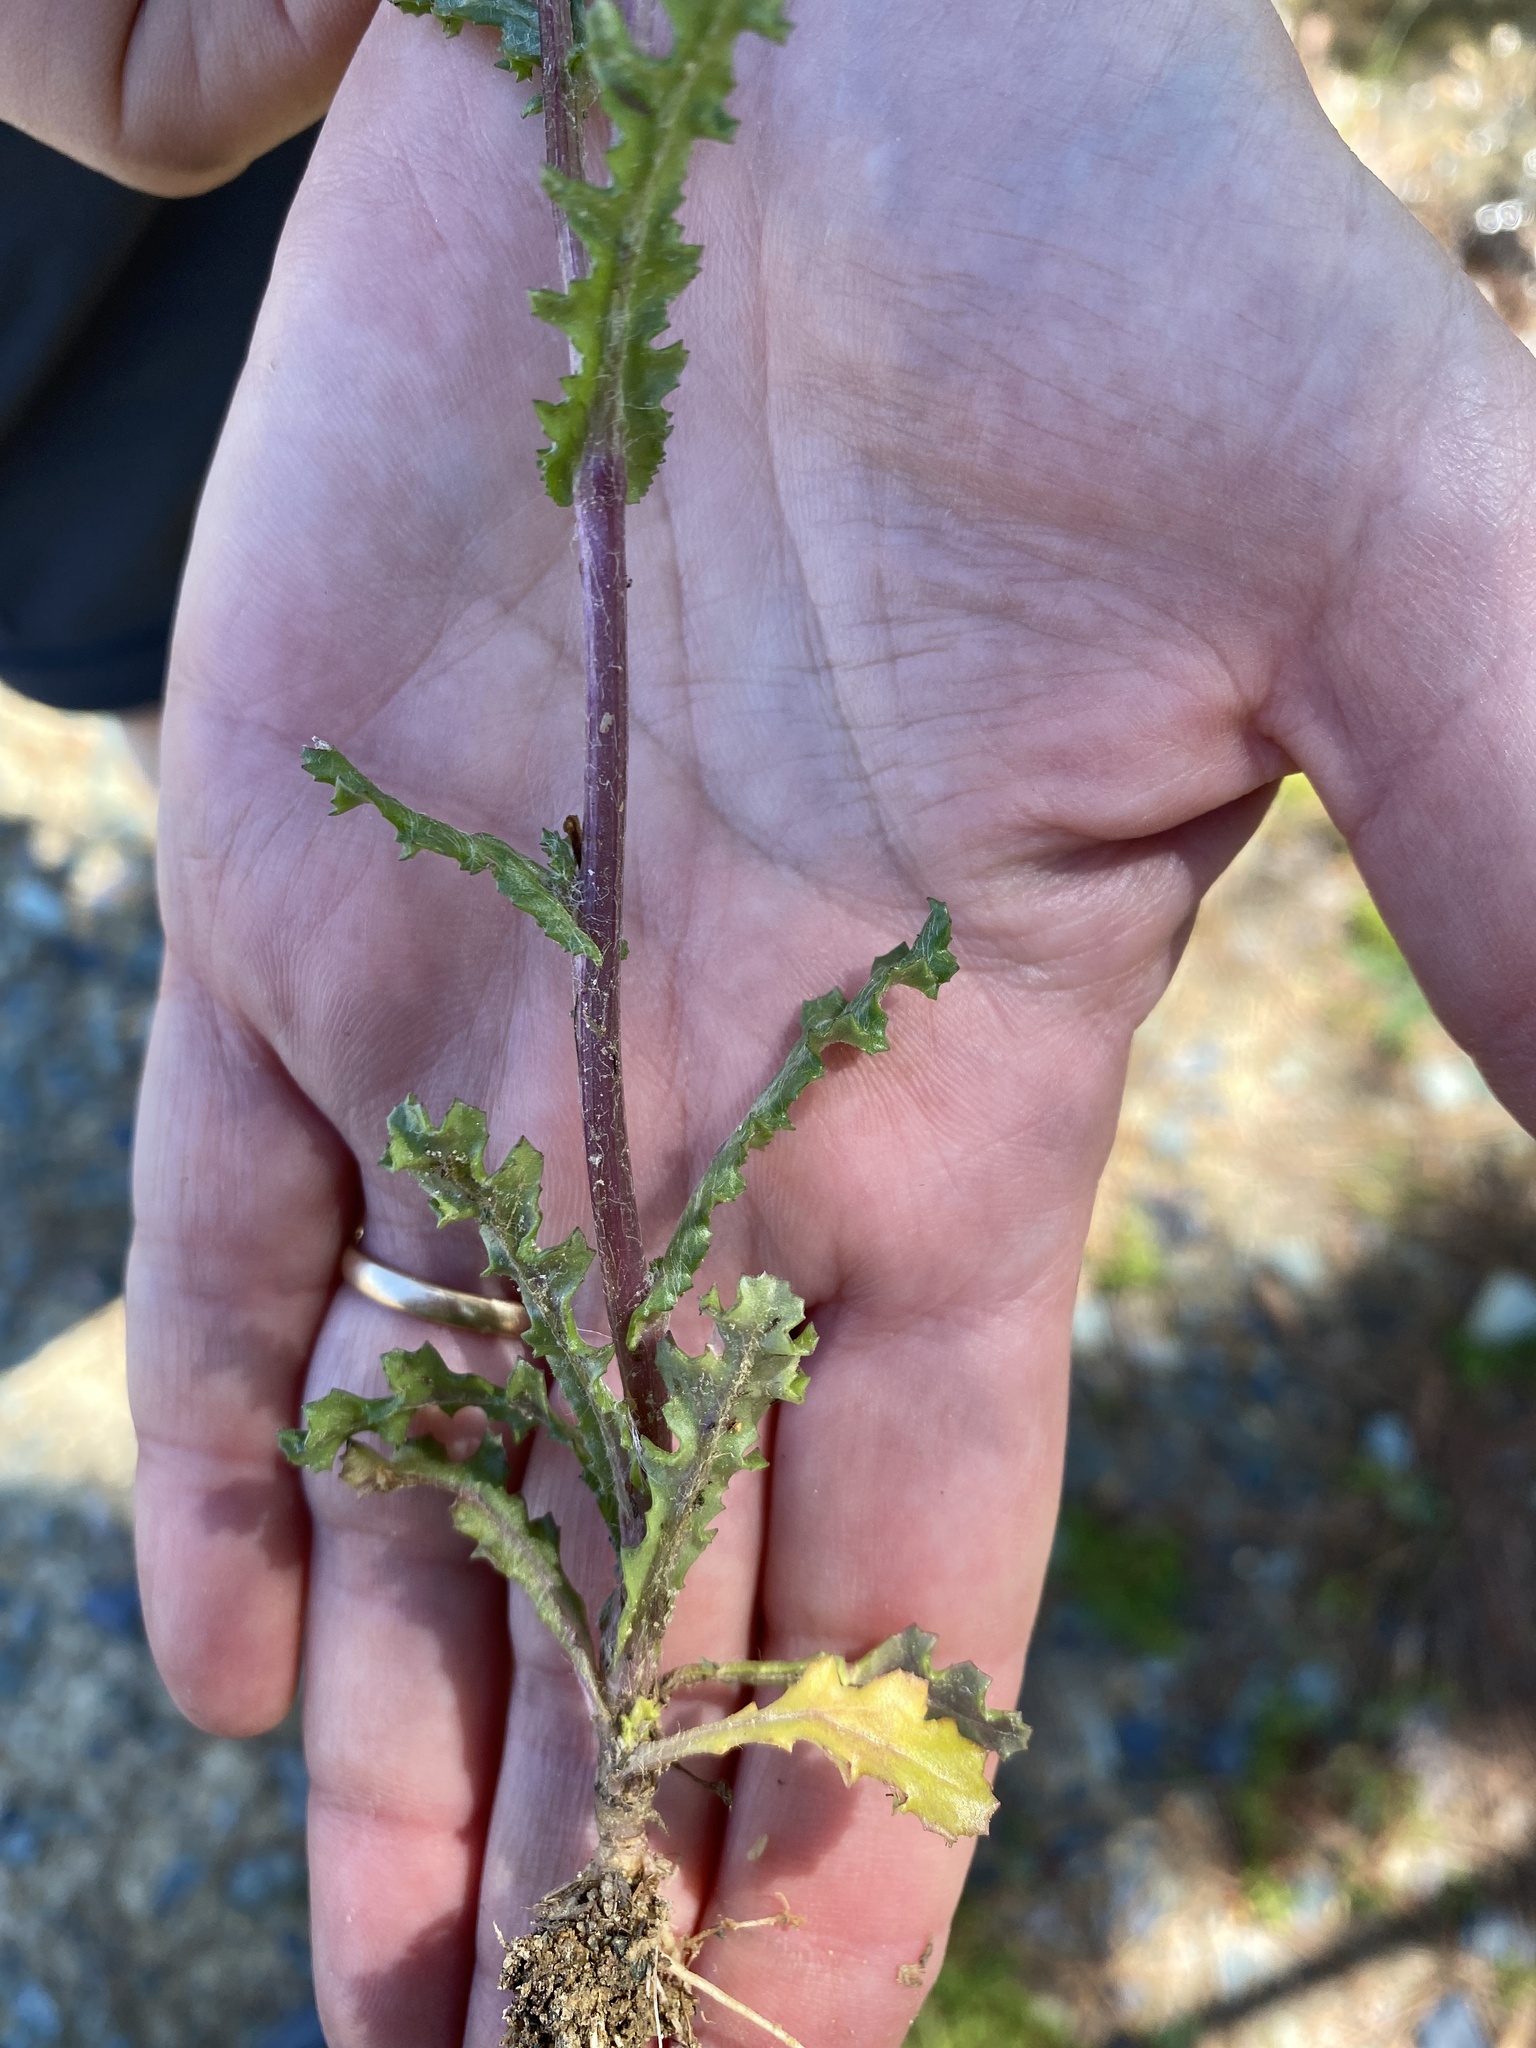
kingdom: Plantae
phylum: Tracheophyta
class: Magnoliopsida
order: Asterales
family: Asteraceae
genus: Senecio
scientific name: Senecio vulgaris
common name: Old-man-in-the-spring
